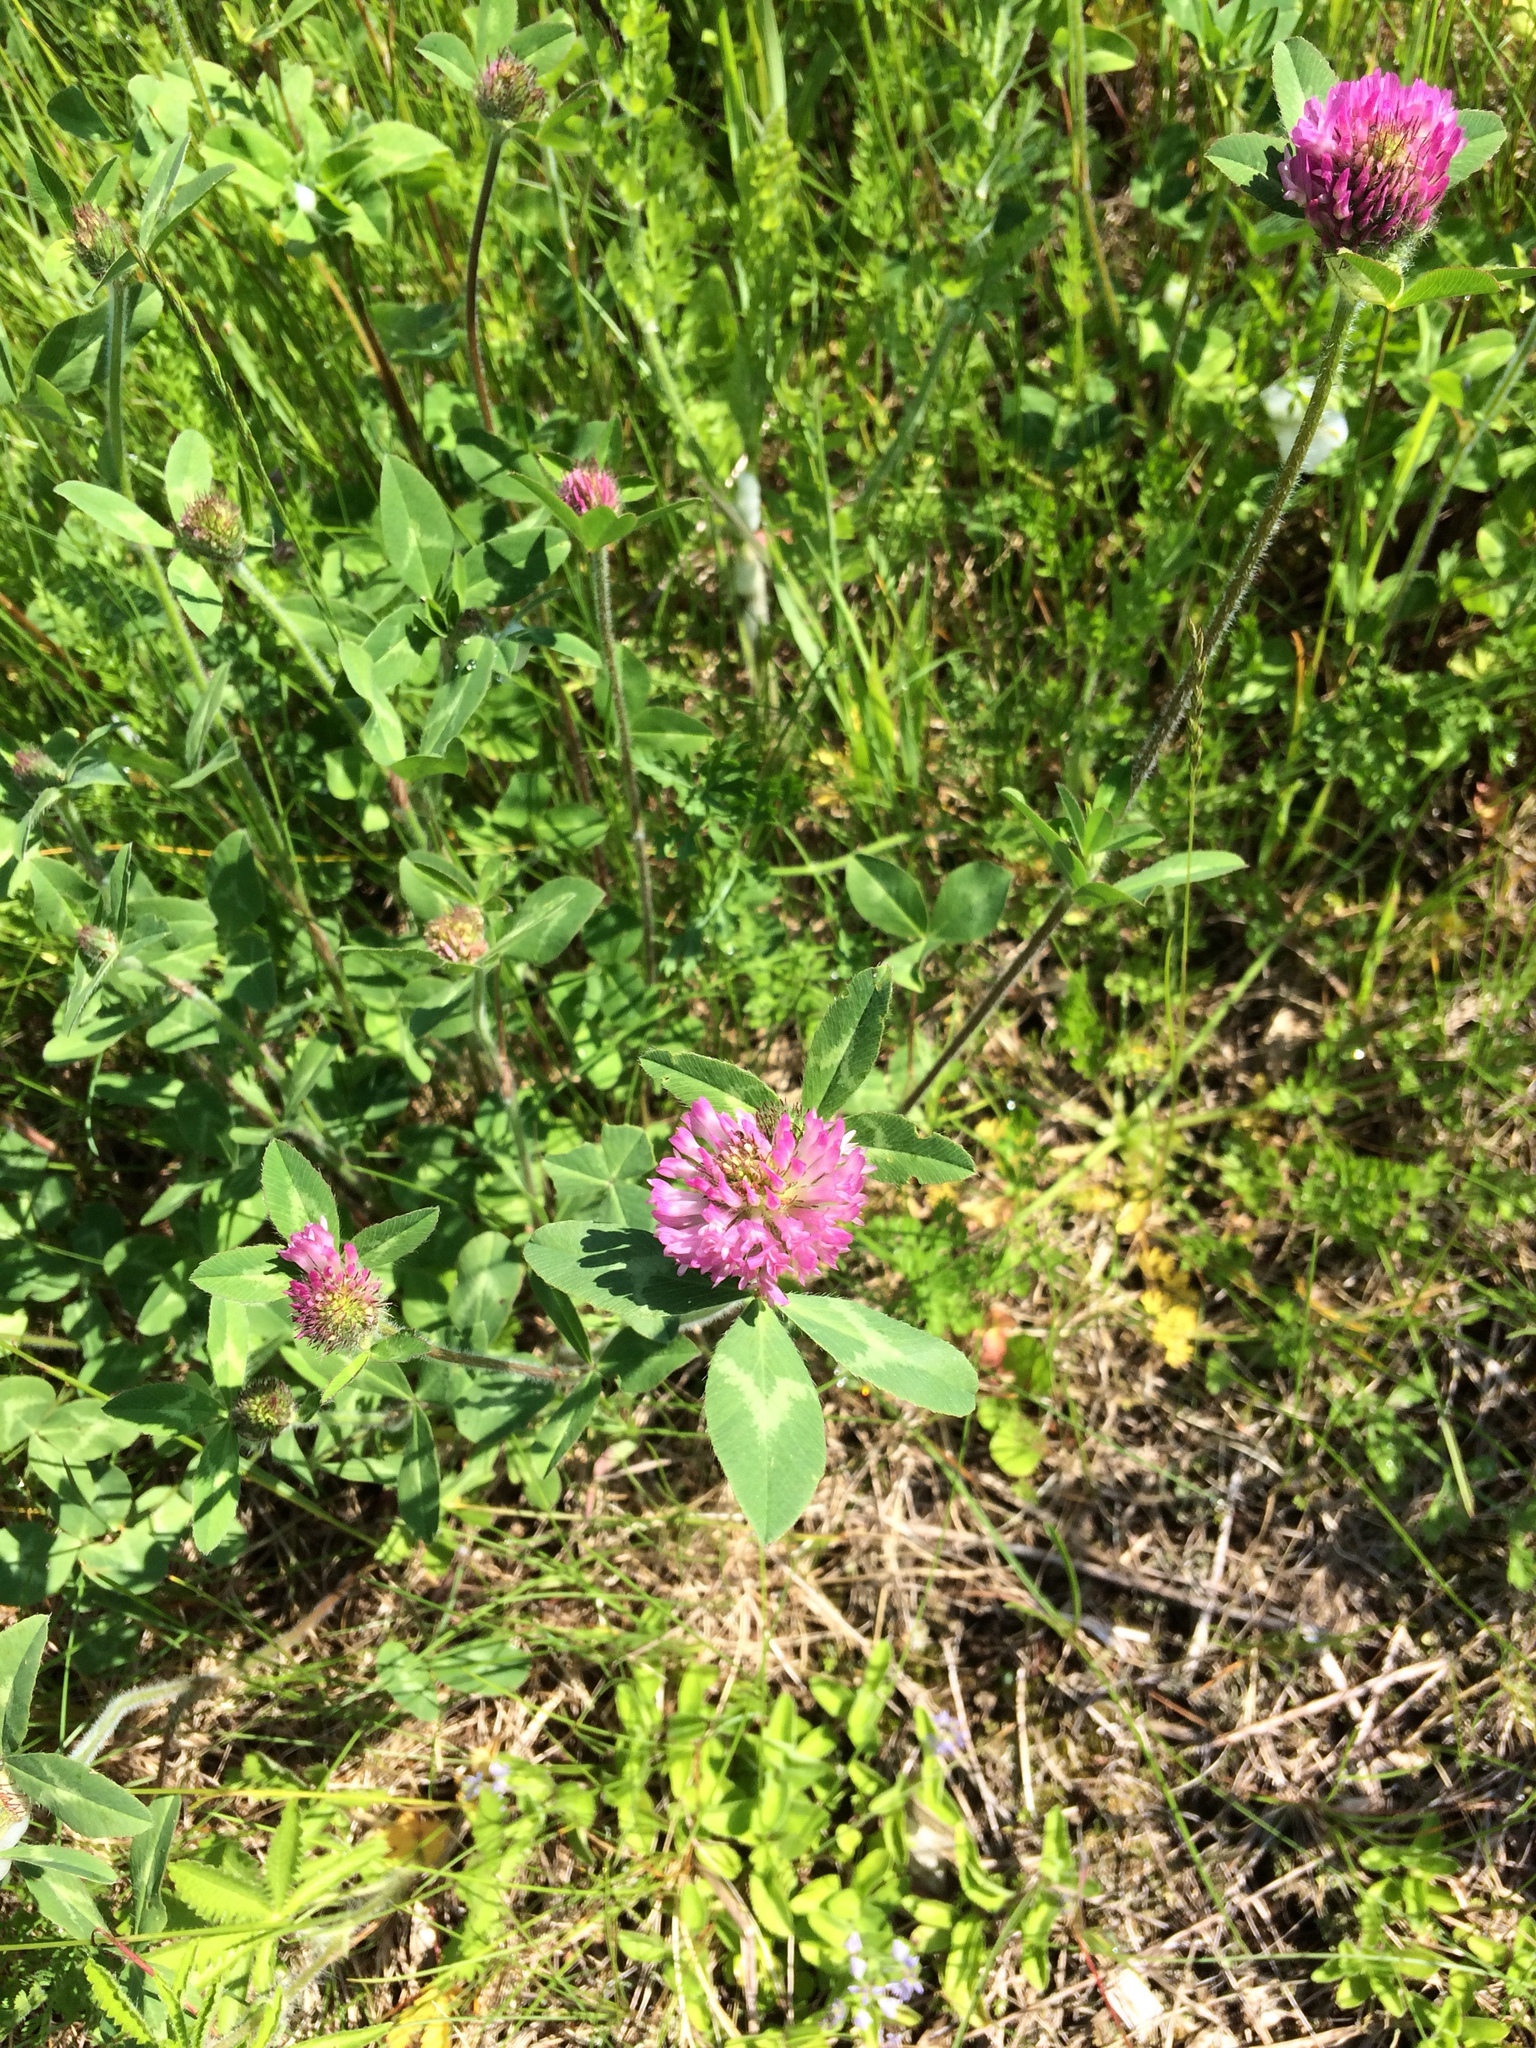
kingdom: Plantae
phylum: Tracheophyta
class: Magnoliopsida
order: Fabales
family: Fabaceae
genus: Trifolium
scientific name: Trifolium pratense
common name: Red clover
